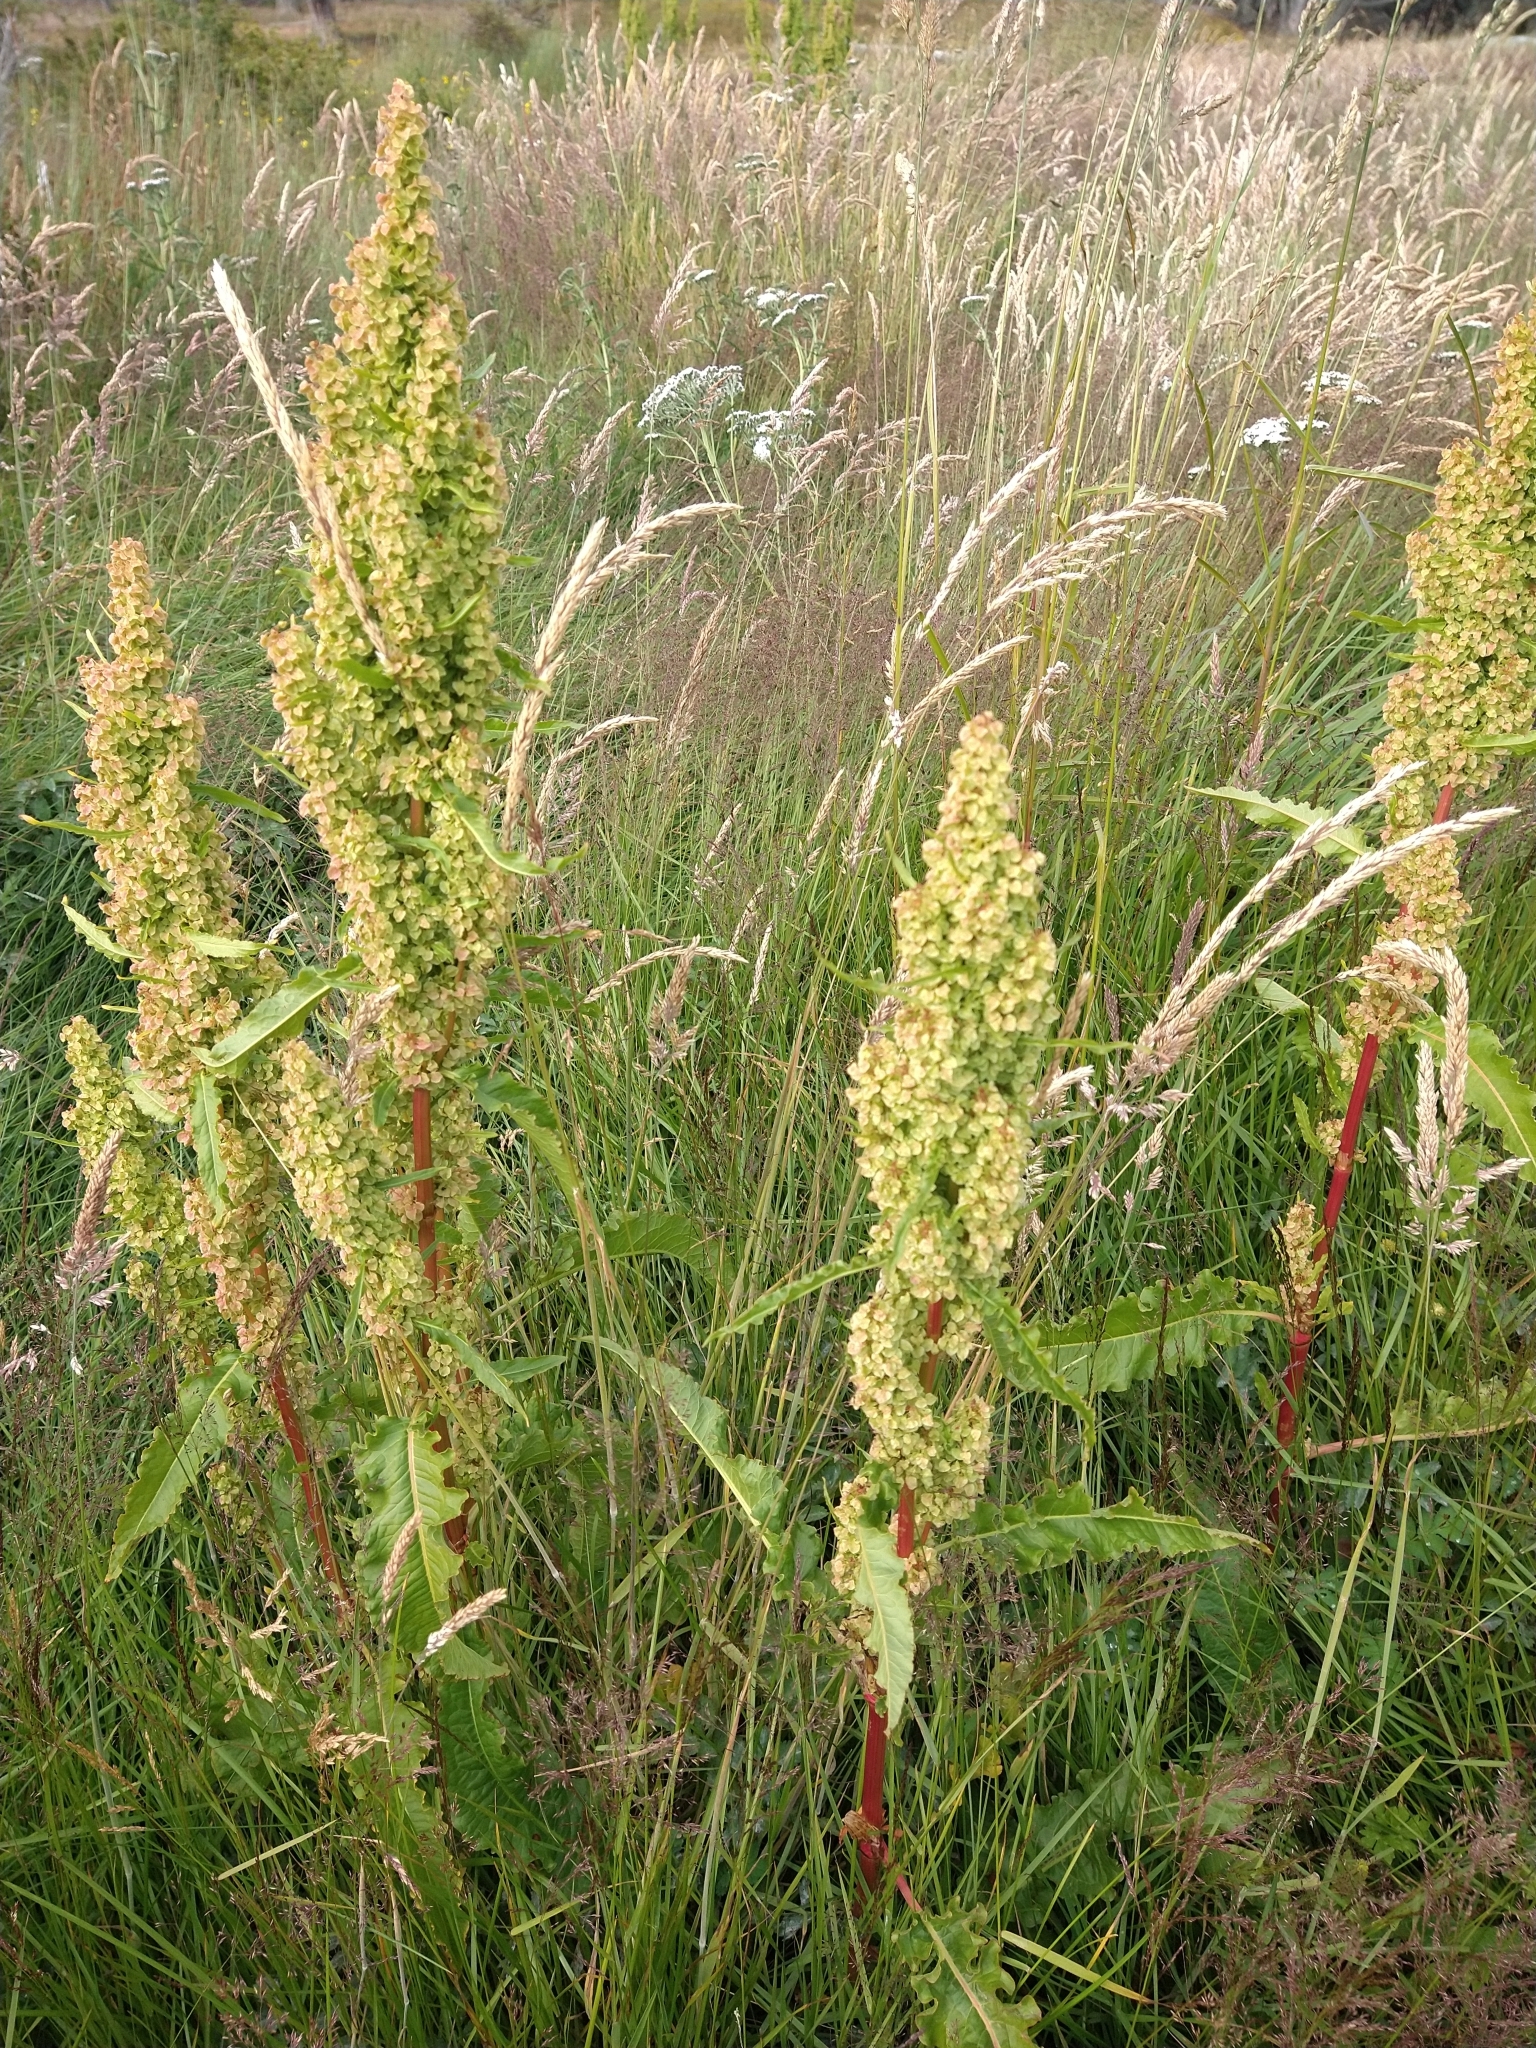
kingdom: Plantae
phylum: Tracheophyta
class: Magnoliopsida
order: Caryophyllales
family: Polygonaceae
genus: Rumex
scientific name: Rumex crispus
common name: Curled dock
